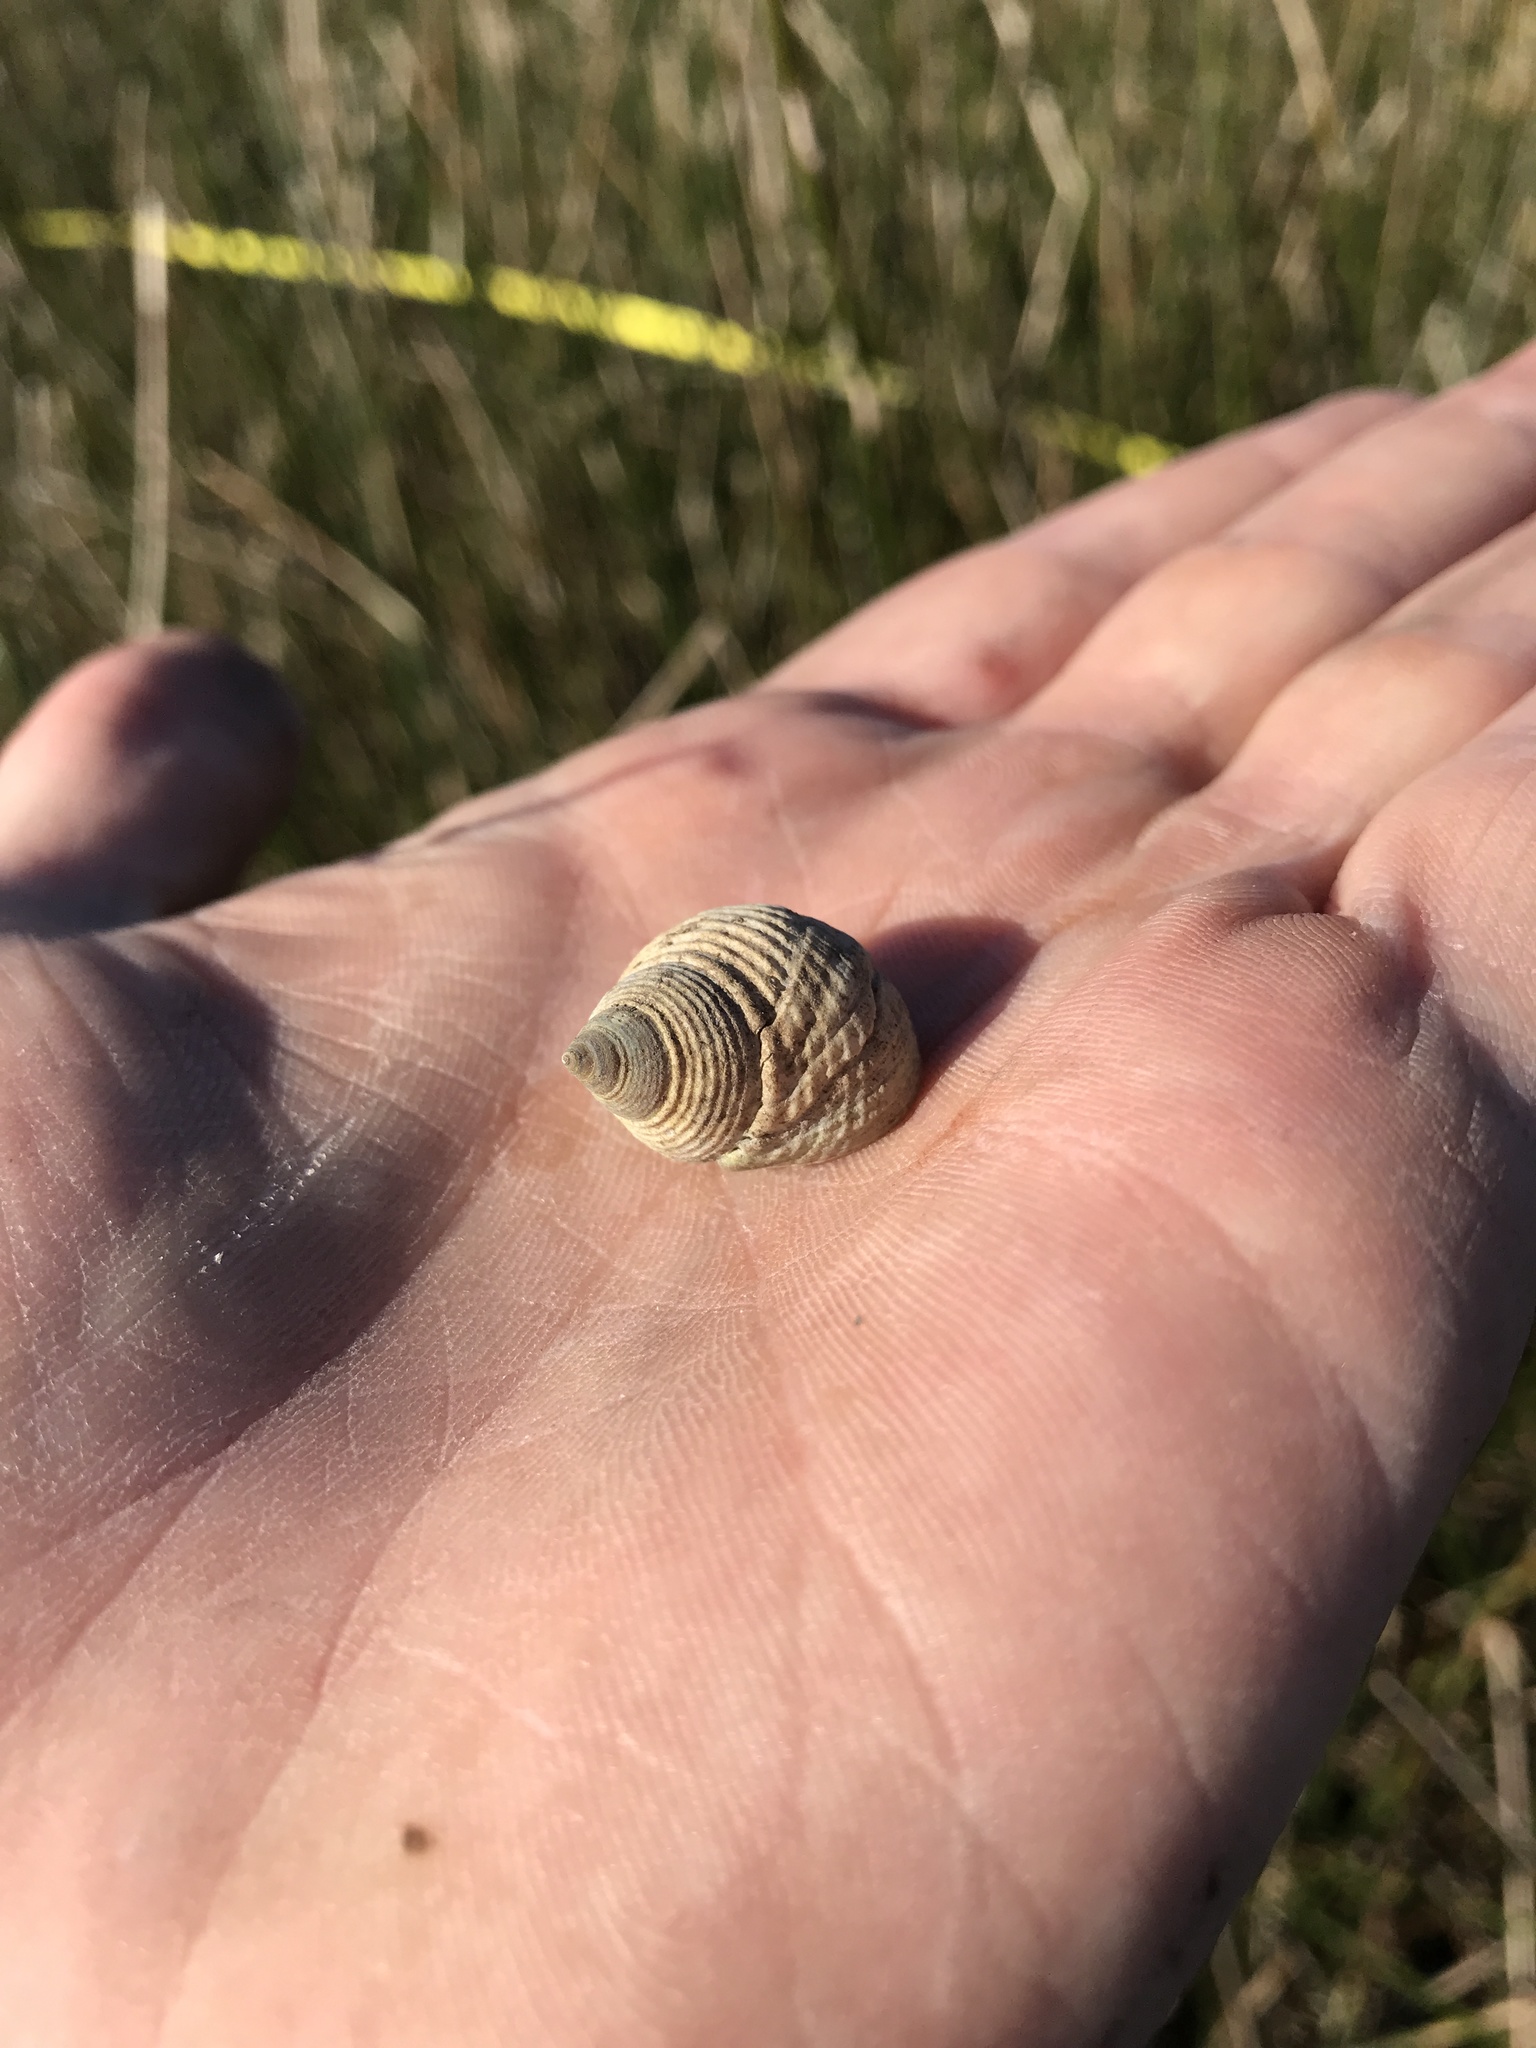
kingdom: Animalia
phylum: Mollusca
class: Gastropoda
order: Littorinimorpha
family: Littorinidae
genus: Littoraria
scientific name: Littoraria irrorata
